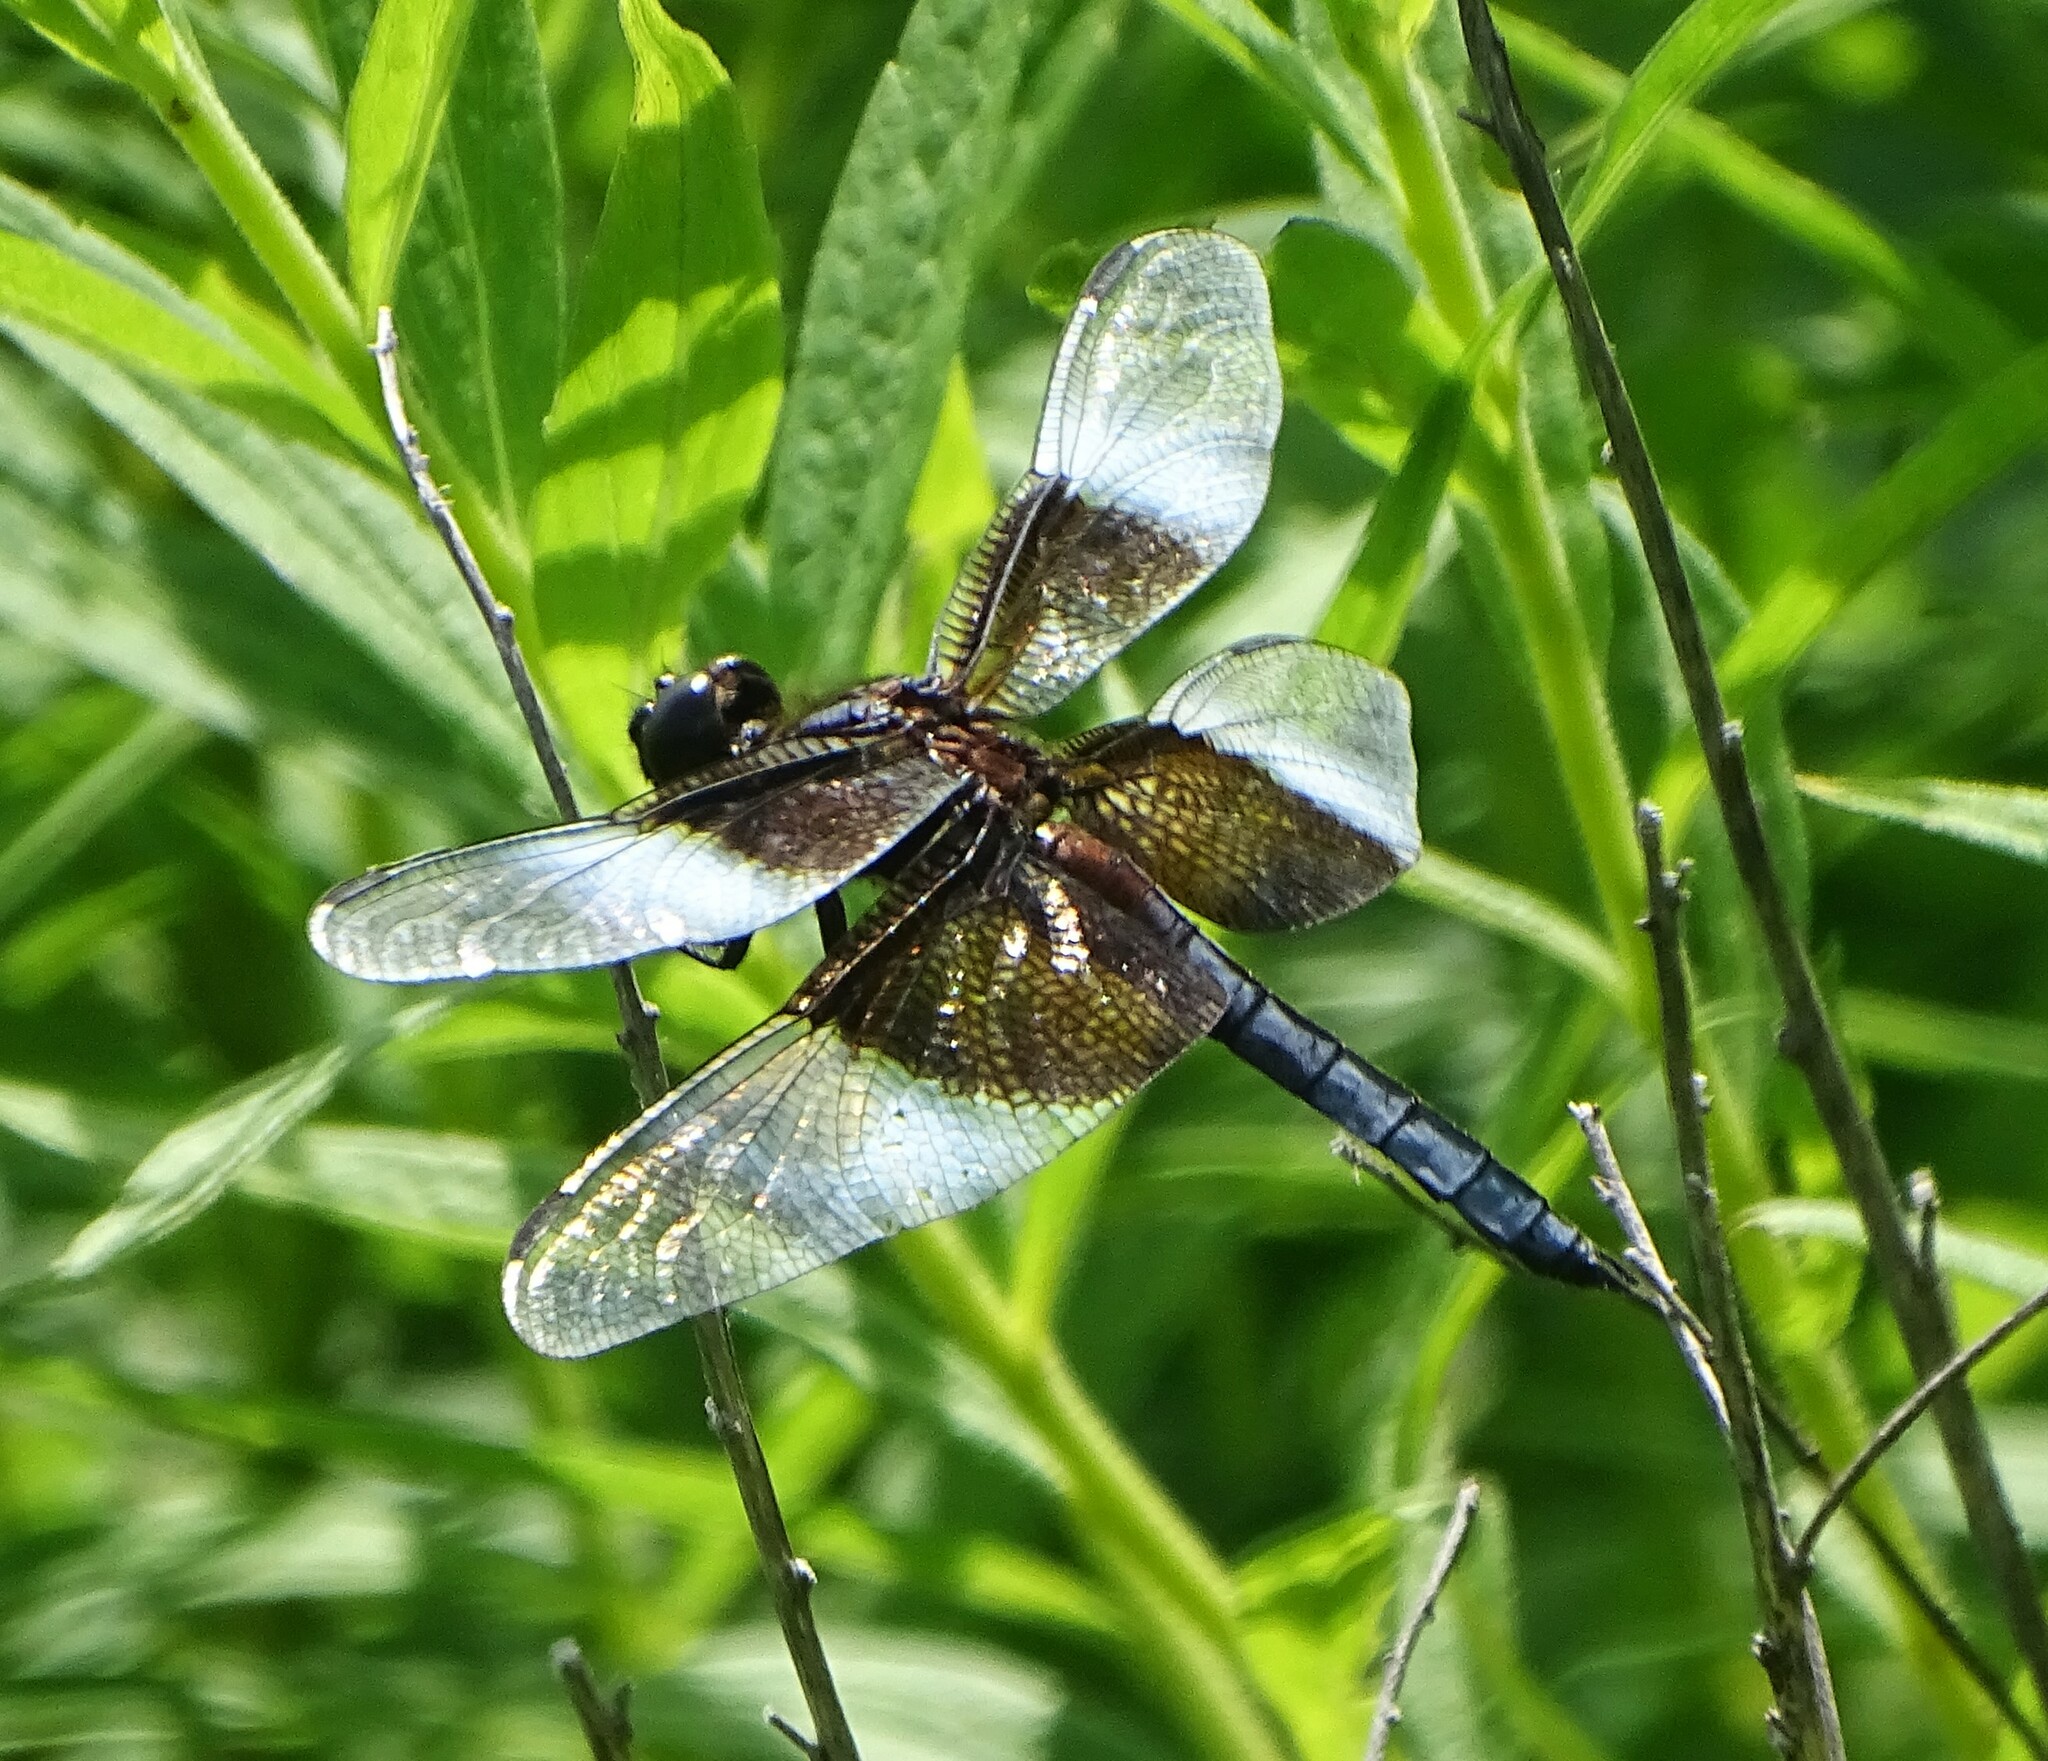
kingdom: Animalia
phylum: Arthropoda
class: Insecta
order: Odonata
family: Libellulidae
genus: Libellula
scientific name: Libellula luctuosa
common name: Widow skimmer
